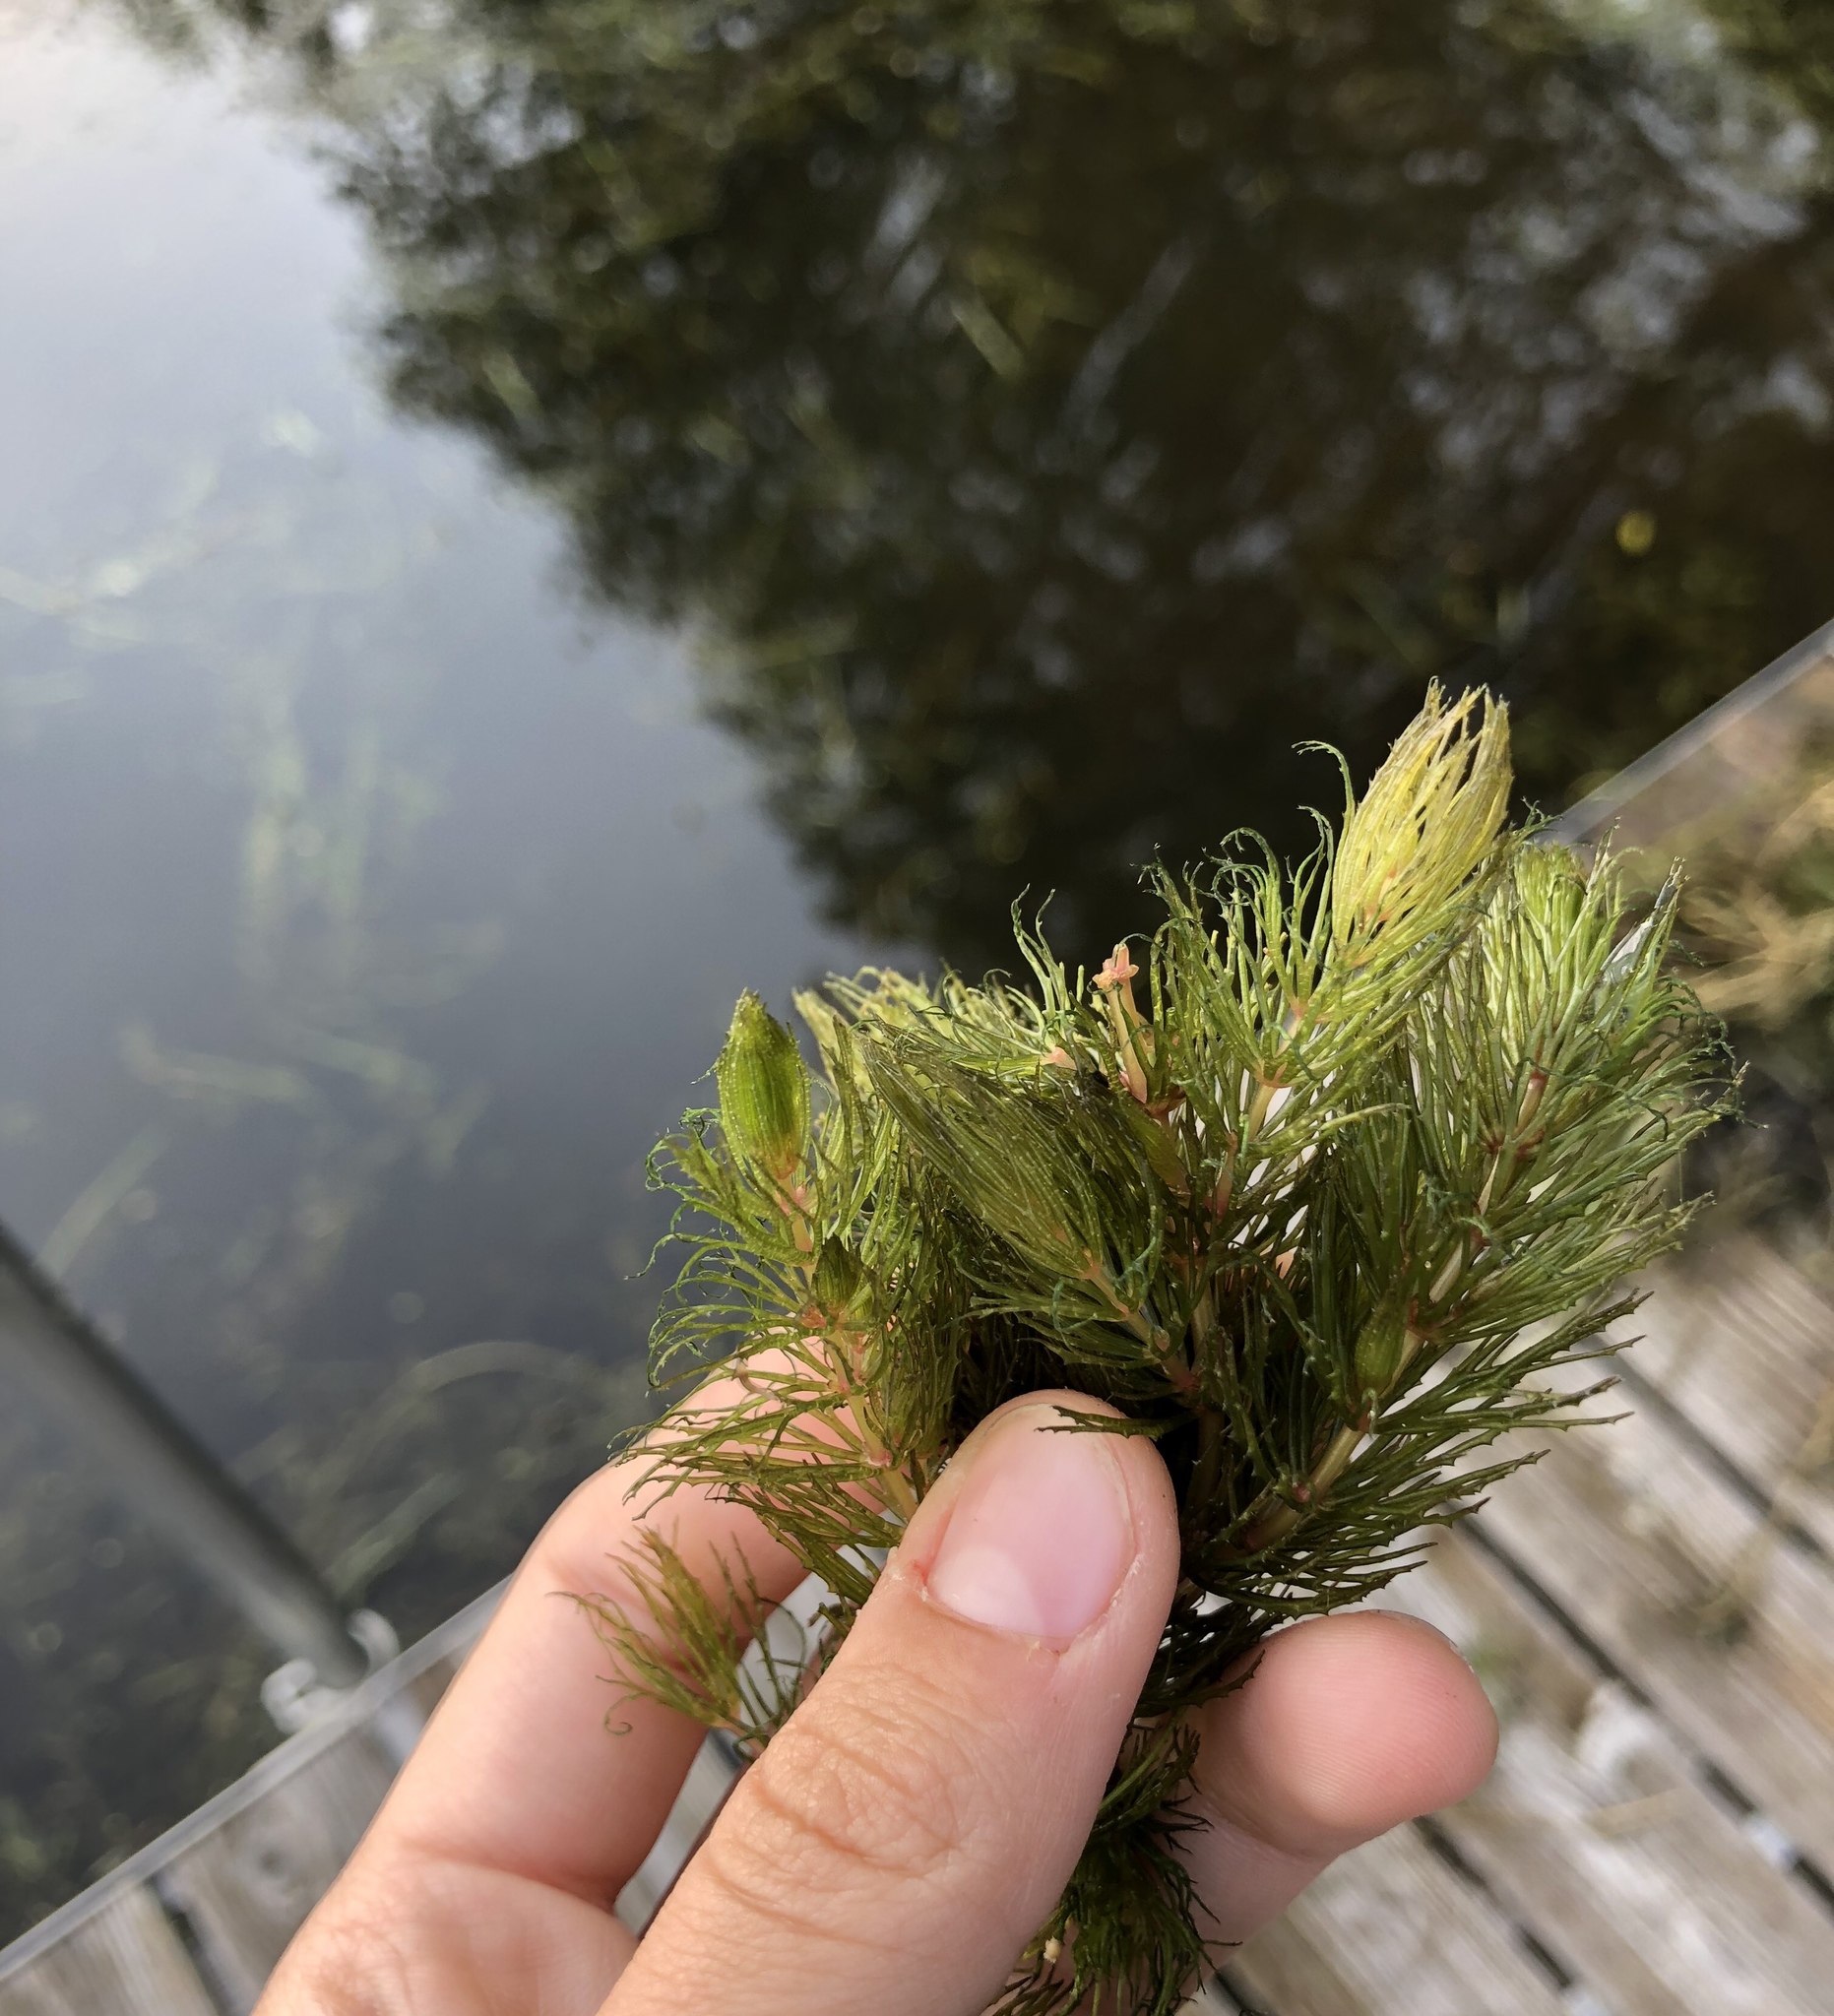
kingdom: Plantae
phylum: Tracheophyta
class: Magnoliopsida
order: Ceratophyllales
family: Ceratophyllaceae
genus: Ceratophyllum
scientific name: Ceratophyllum demersum
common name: Rigid hornwort
